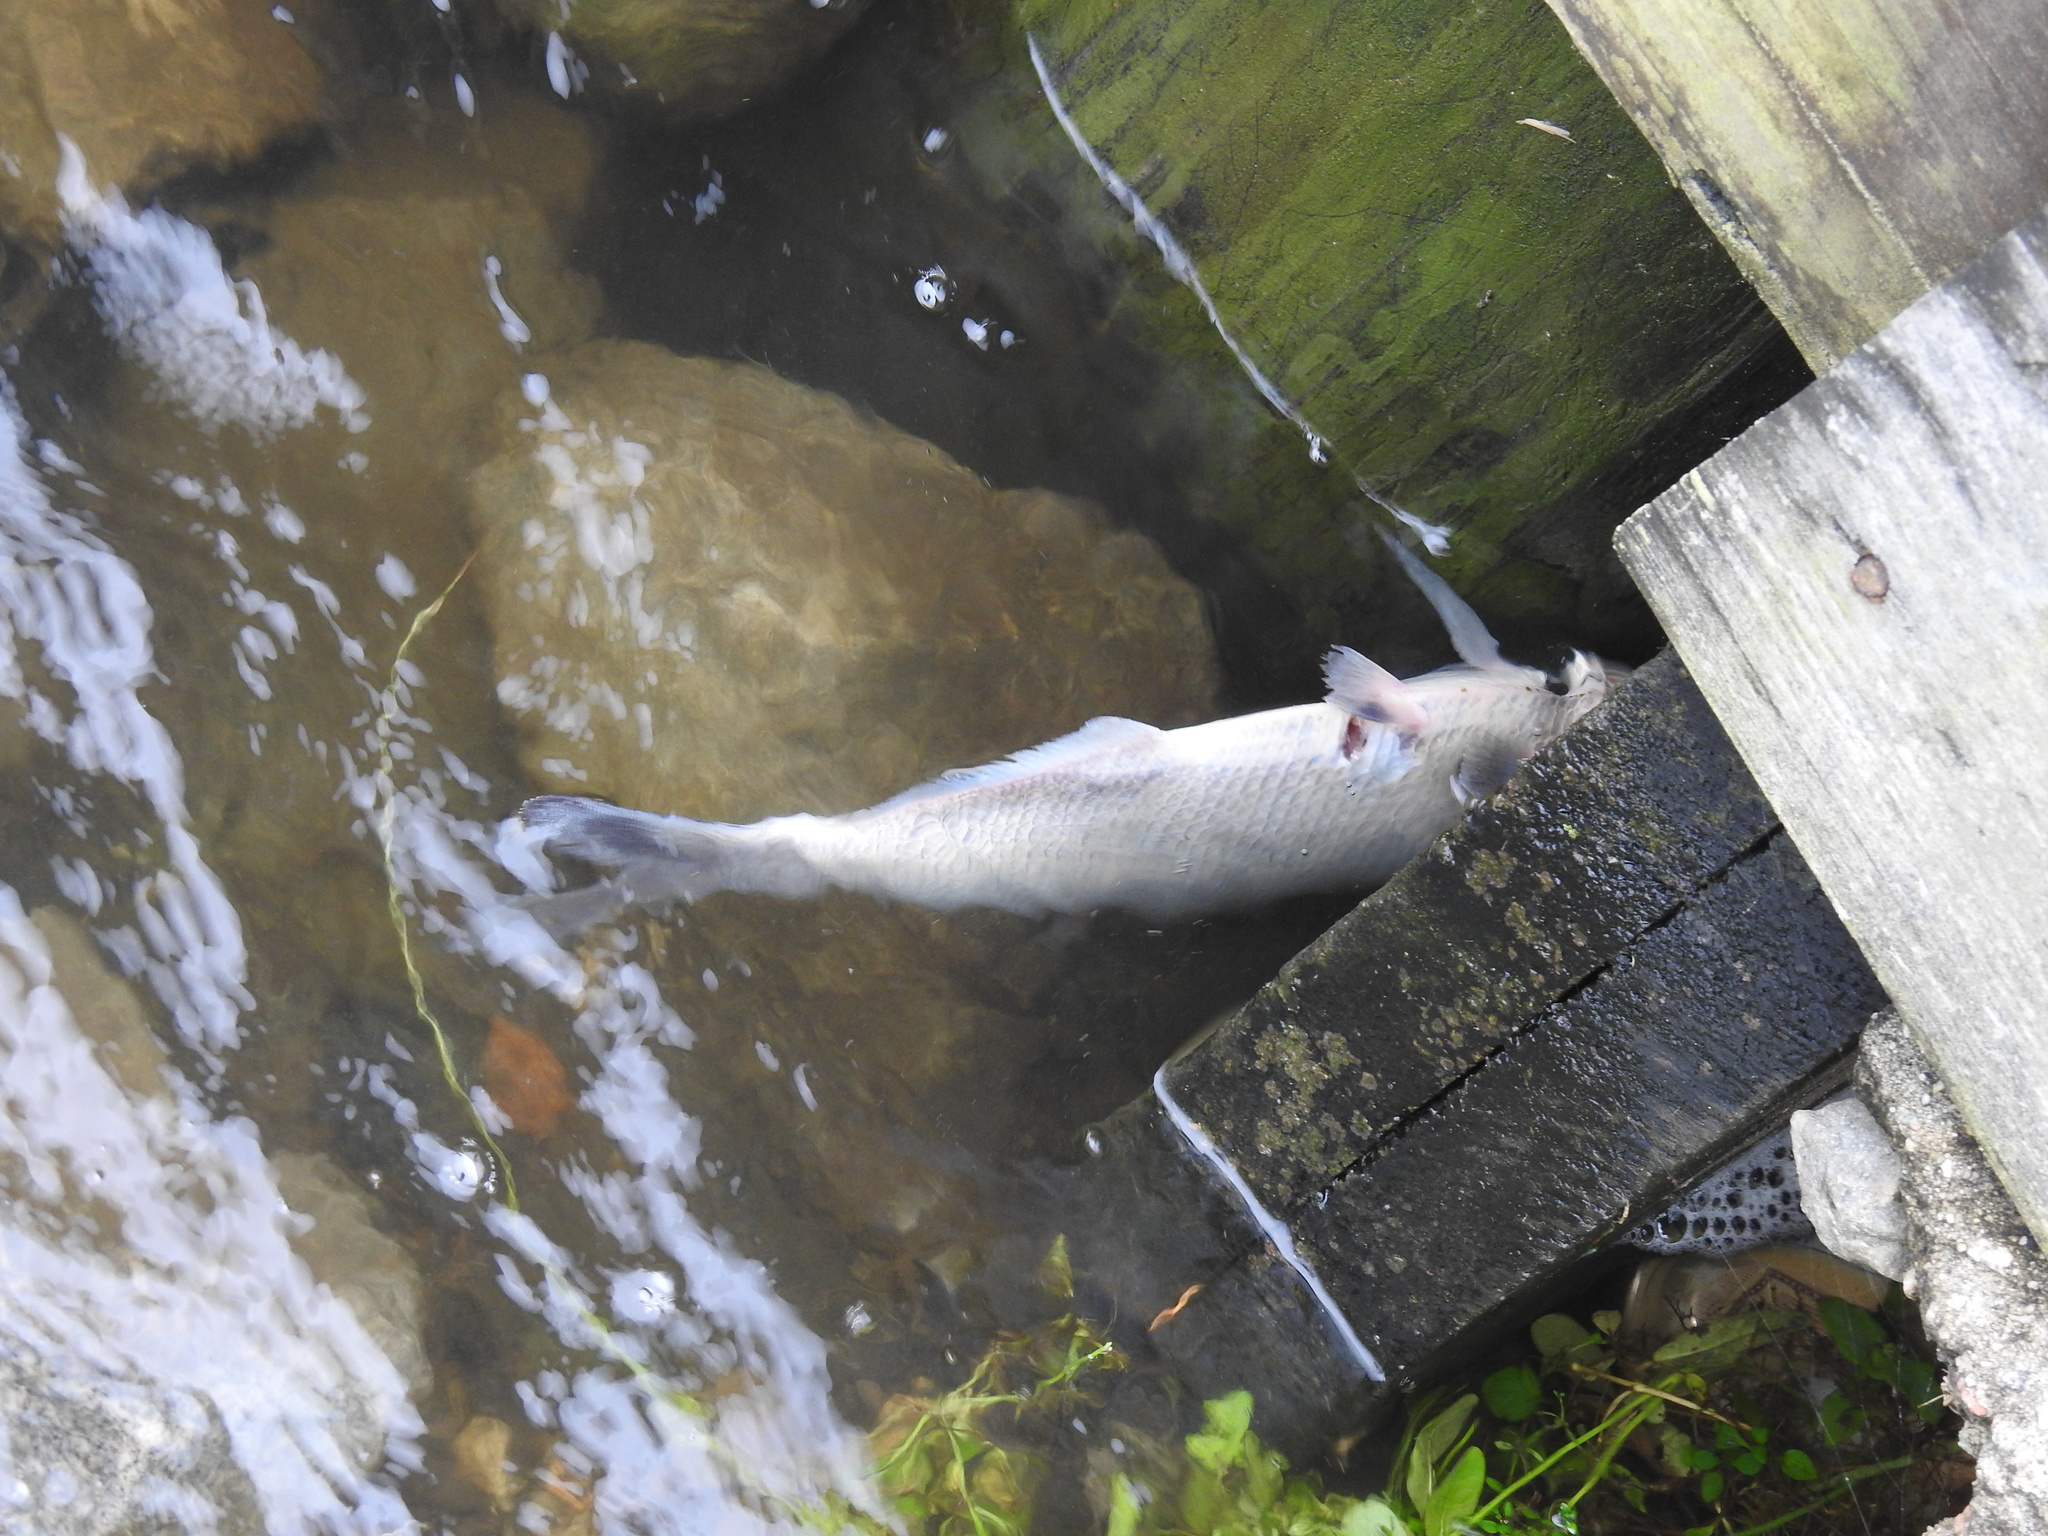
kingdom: Animalia
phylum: Chordata
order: Clupeiformes
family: Clupeidae
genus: Dorosoma
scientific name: Dorosoma cepedianum
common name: Gizzard shad
